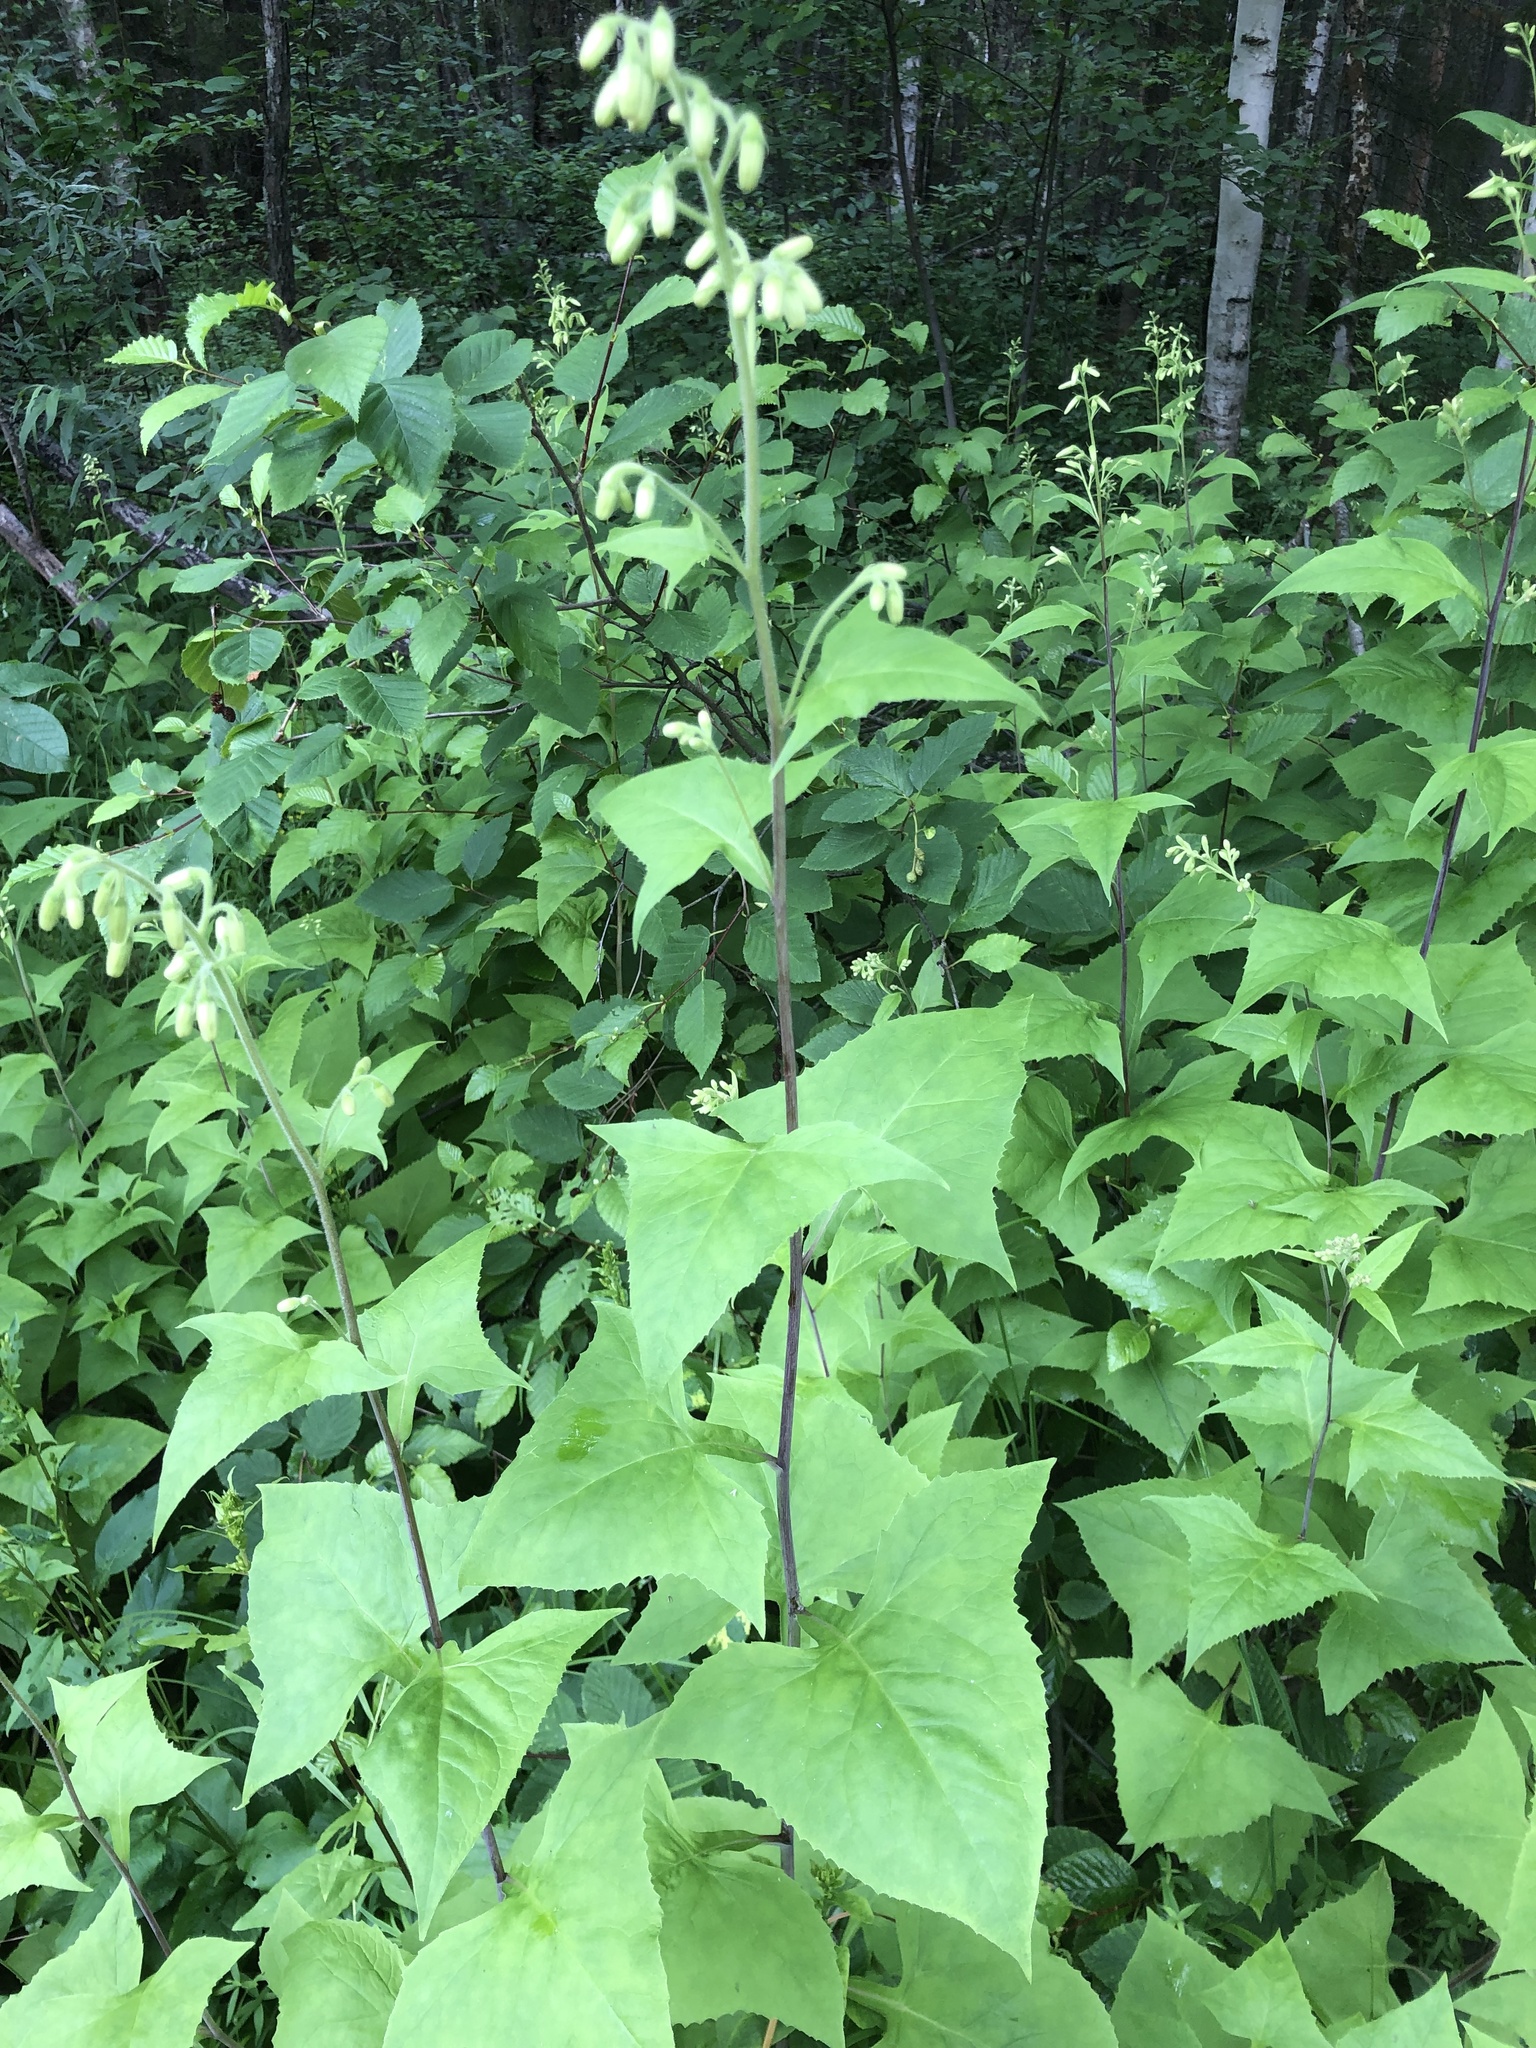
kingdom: Plantae
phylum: Tracheophyta
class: Magnoliopsida
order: Asterales
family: Asteraceae
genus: Parasenecio
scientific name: Parasenecio hastatus
